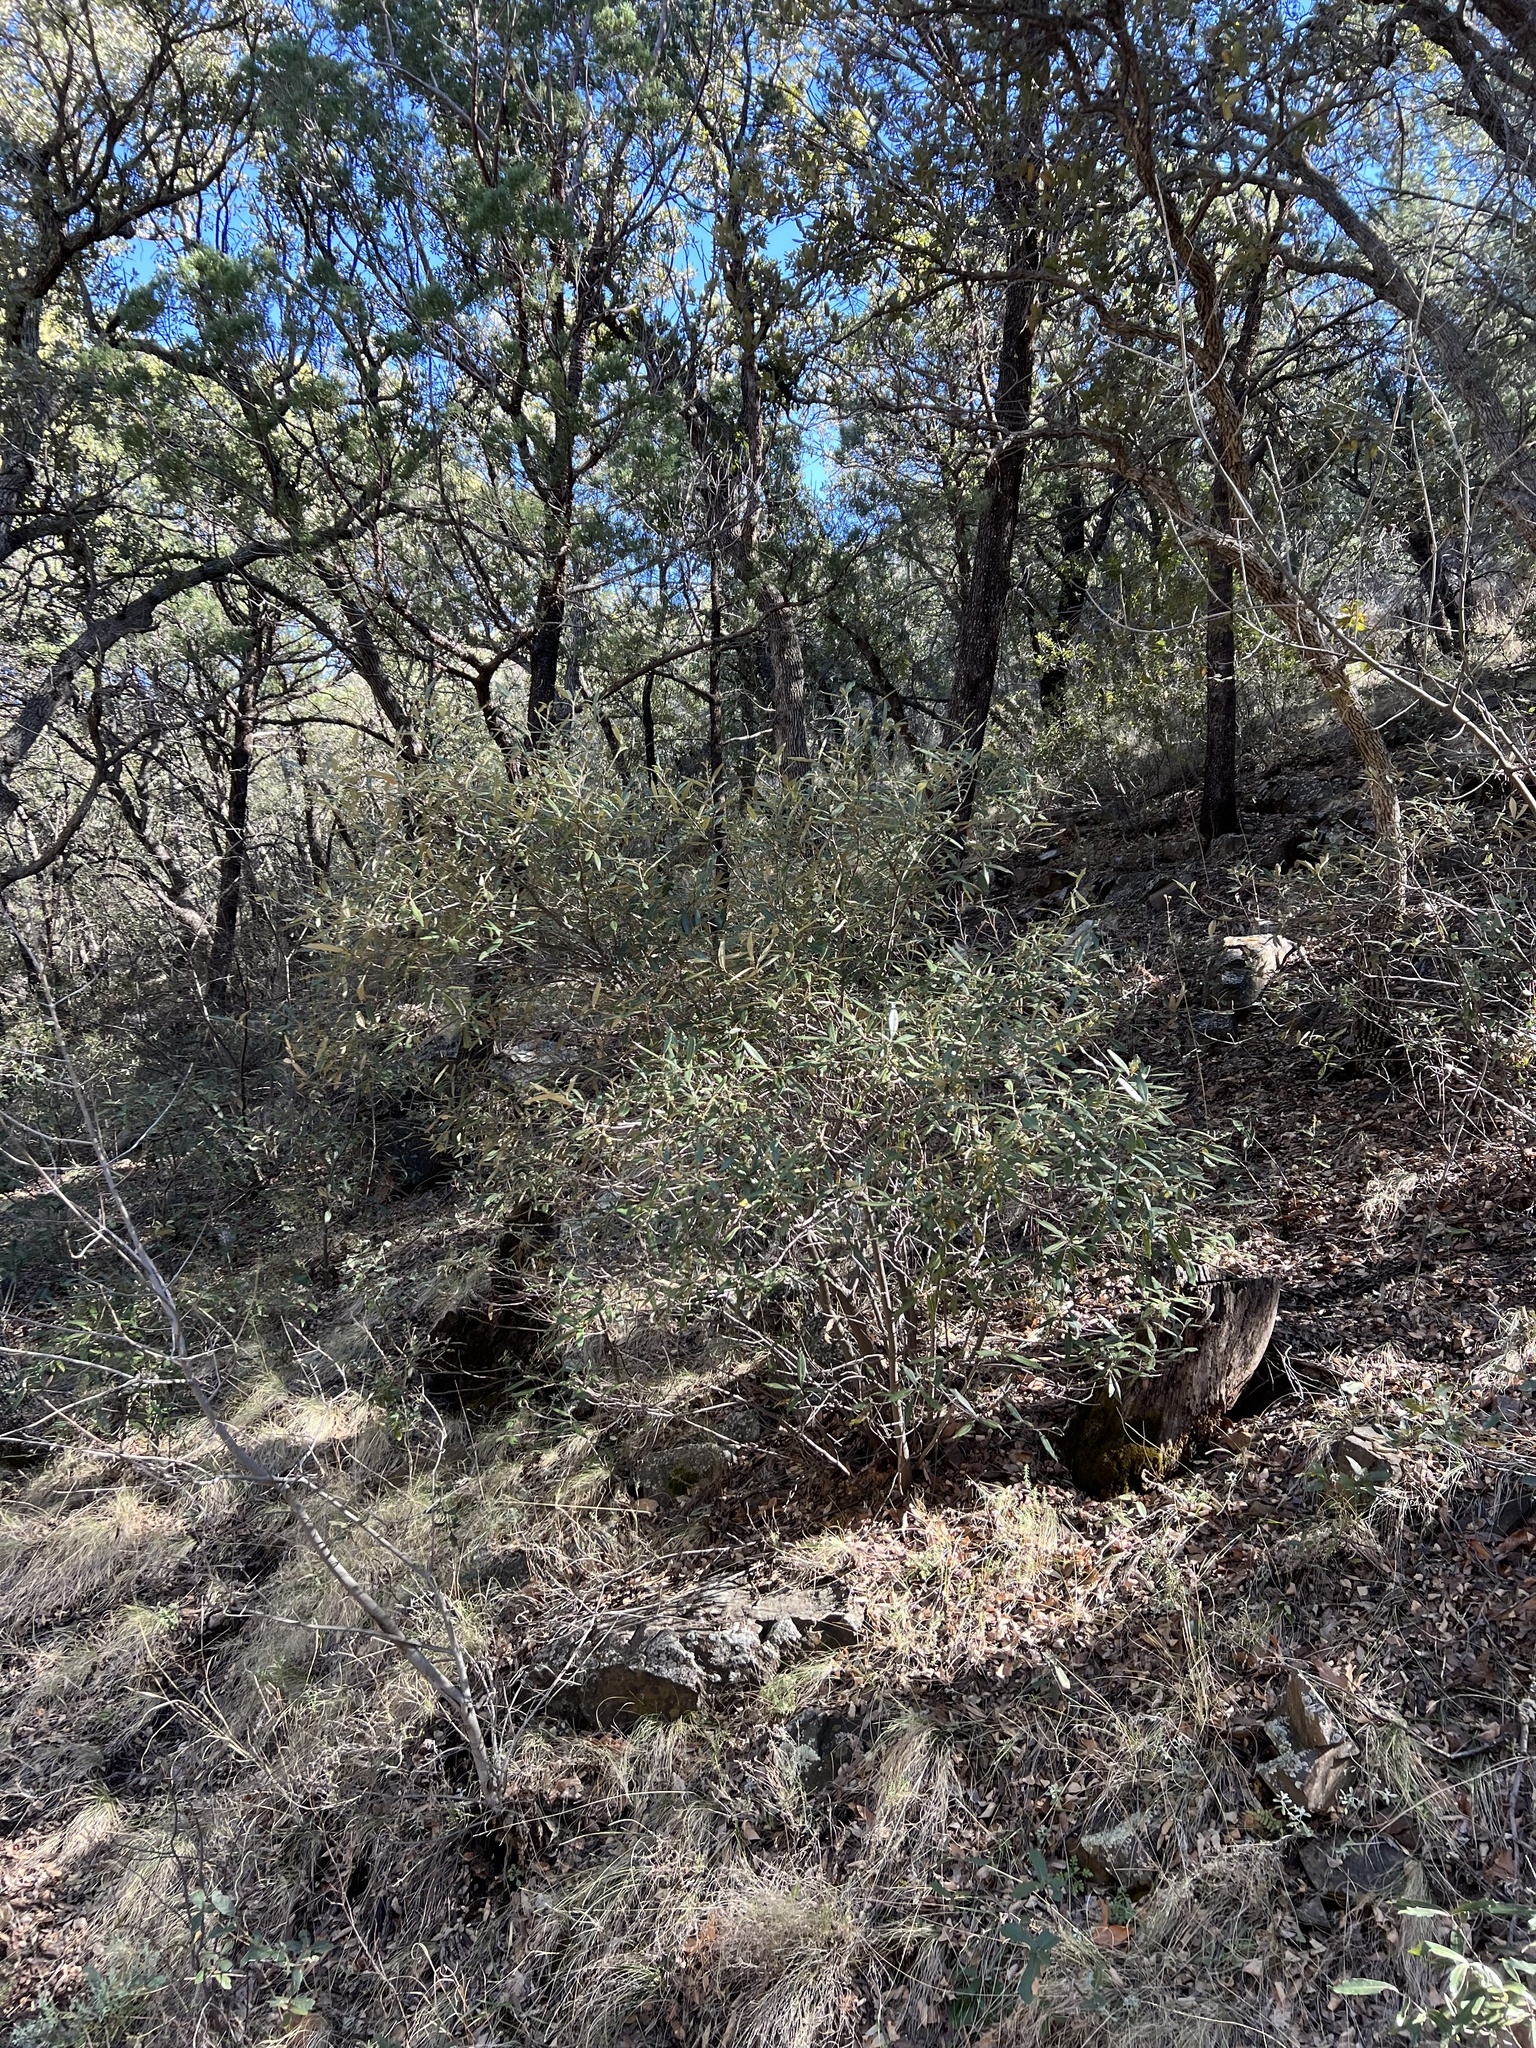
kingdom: Plantae
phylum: Tracheophyta
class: Magnoliopsida
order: Fagales
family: Fagaceae
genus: Quercus
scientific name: Quercus hypoleucoides
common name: Silverleaf oak
